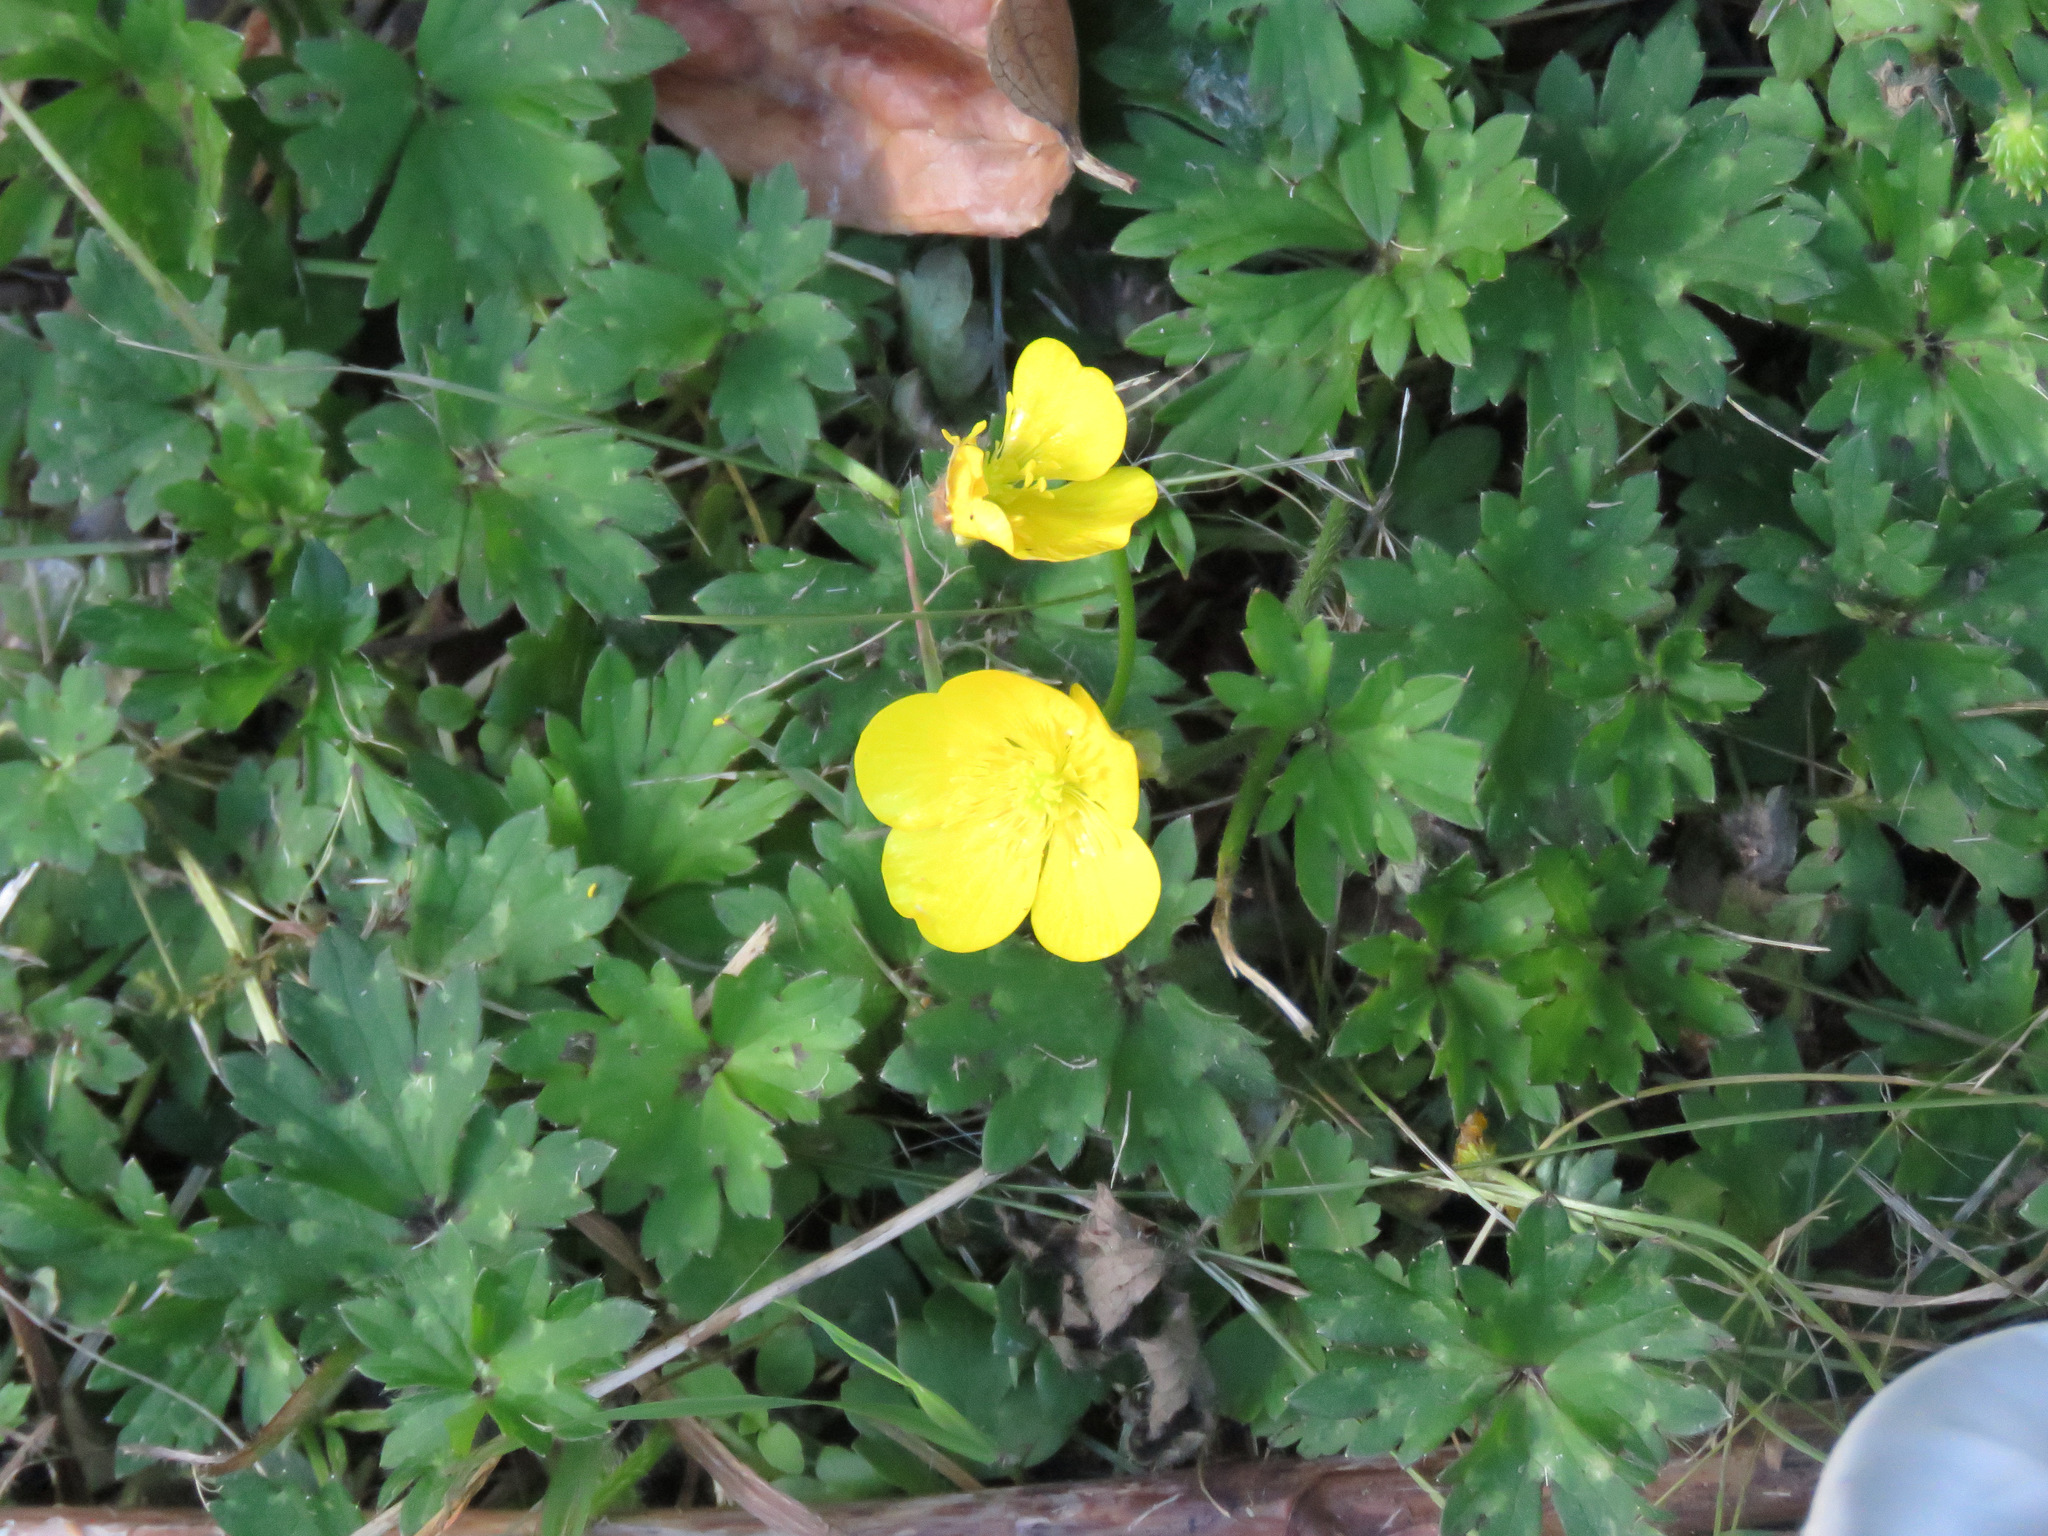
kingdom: Plantae
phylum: Tracheophyta
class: Magnoliopsida
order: Ranunculales
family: Ranunculaceae
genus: Ranunculus
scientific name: Ranunculus repens
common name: Creeping buttercup
